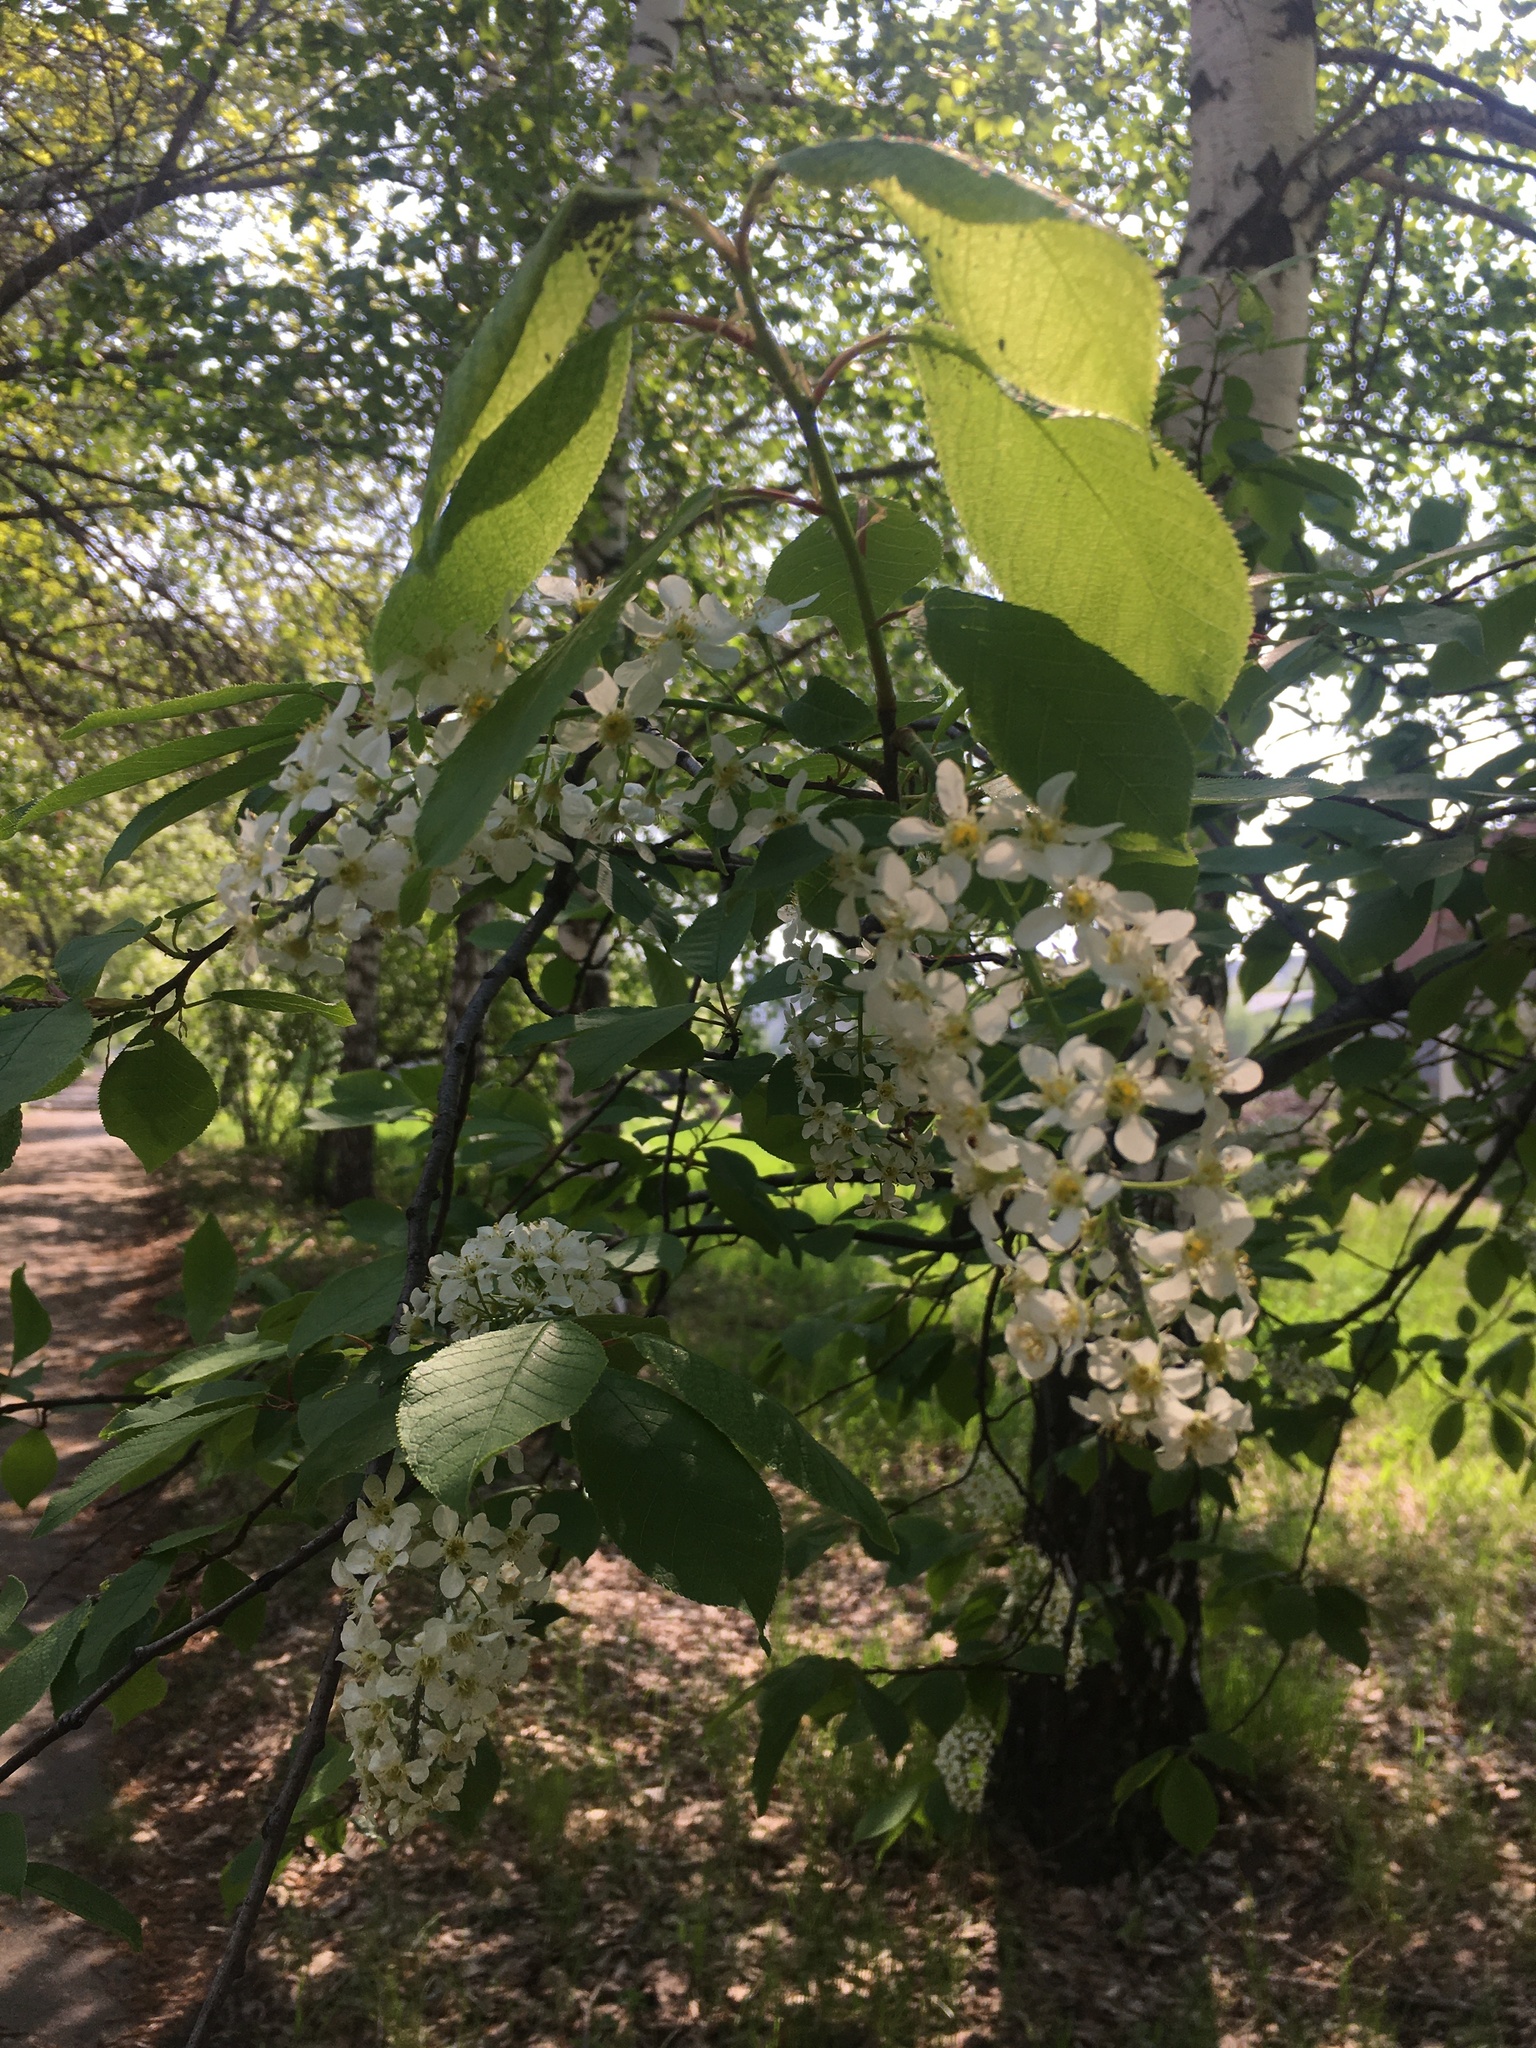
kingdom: Plantae
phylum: Tracheophyta
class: Magnoliopsida
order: Rosales
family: Rosaceae
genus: Prunus
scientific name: Prunus padus
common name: Bird cherry
